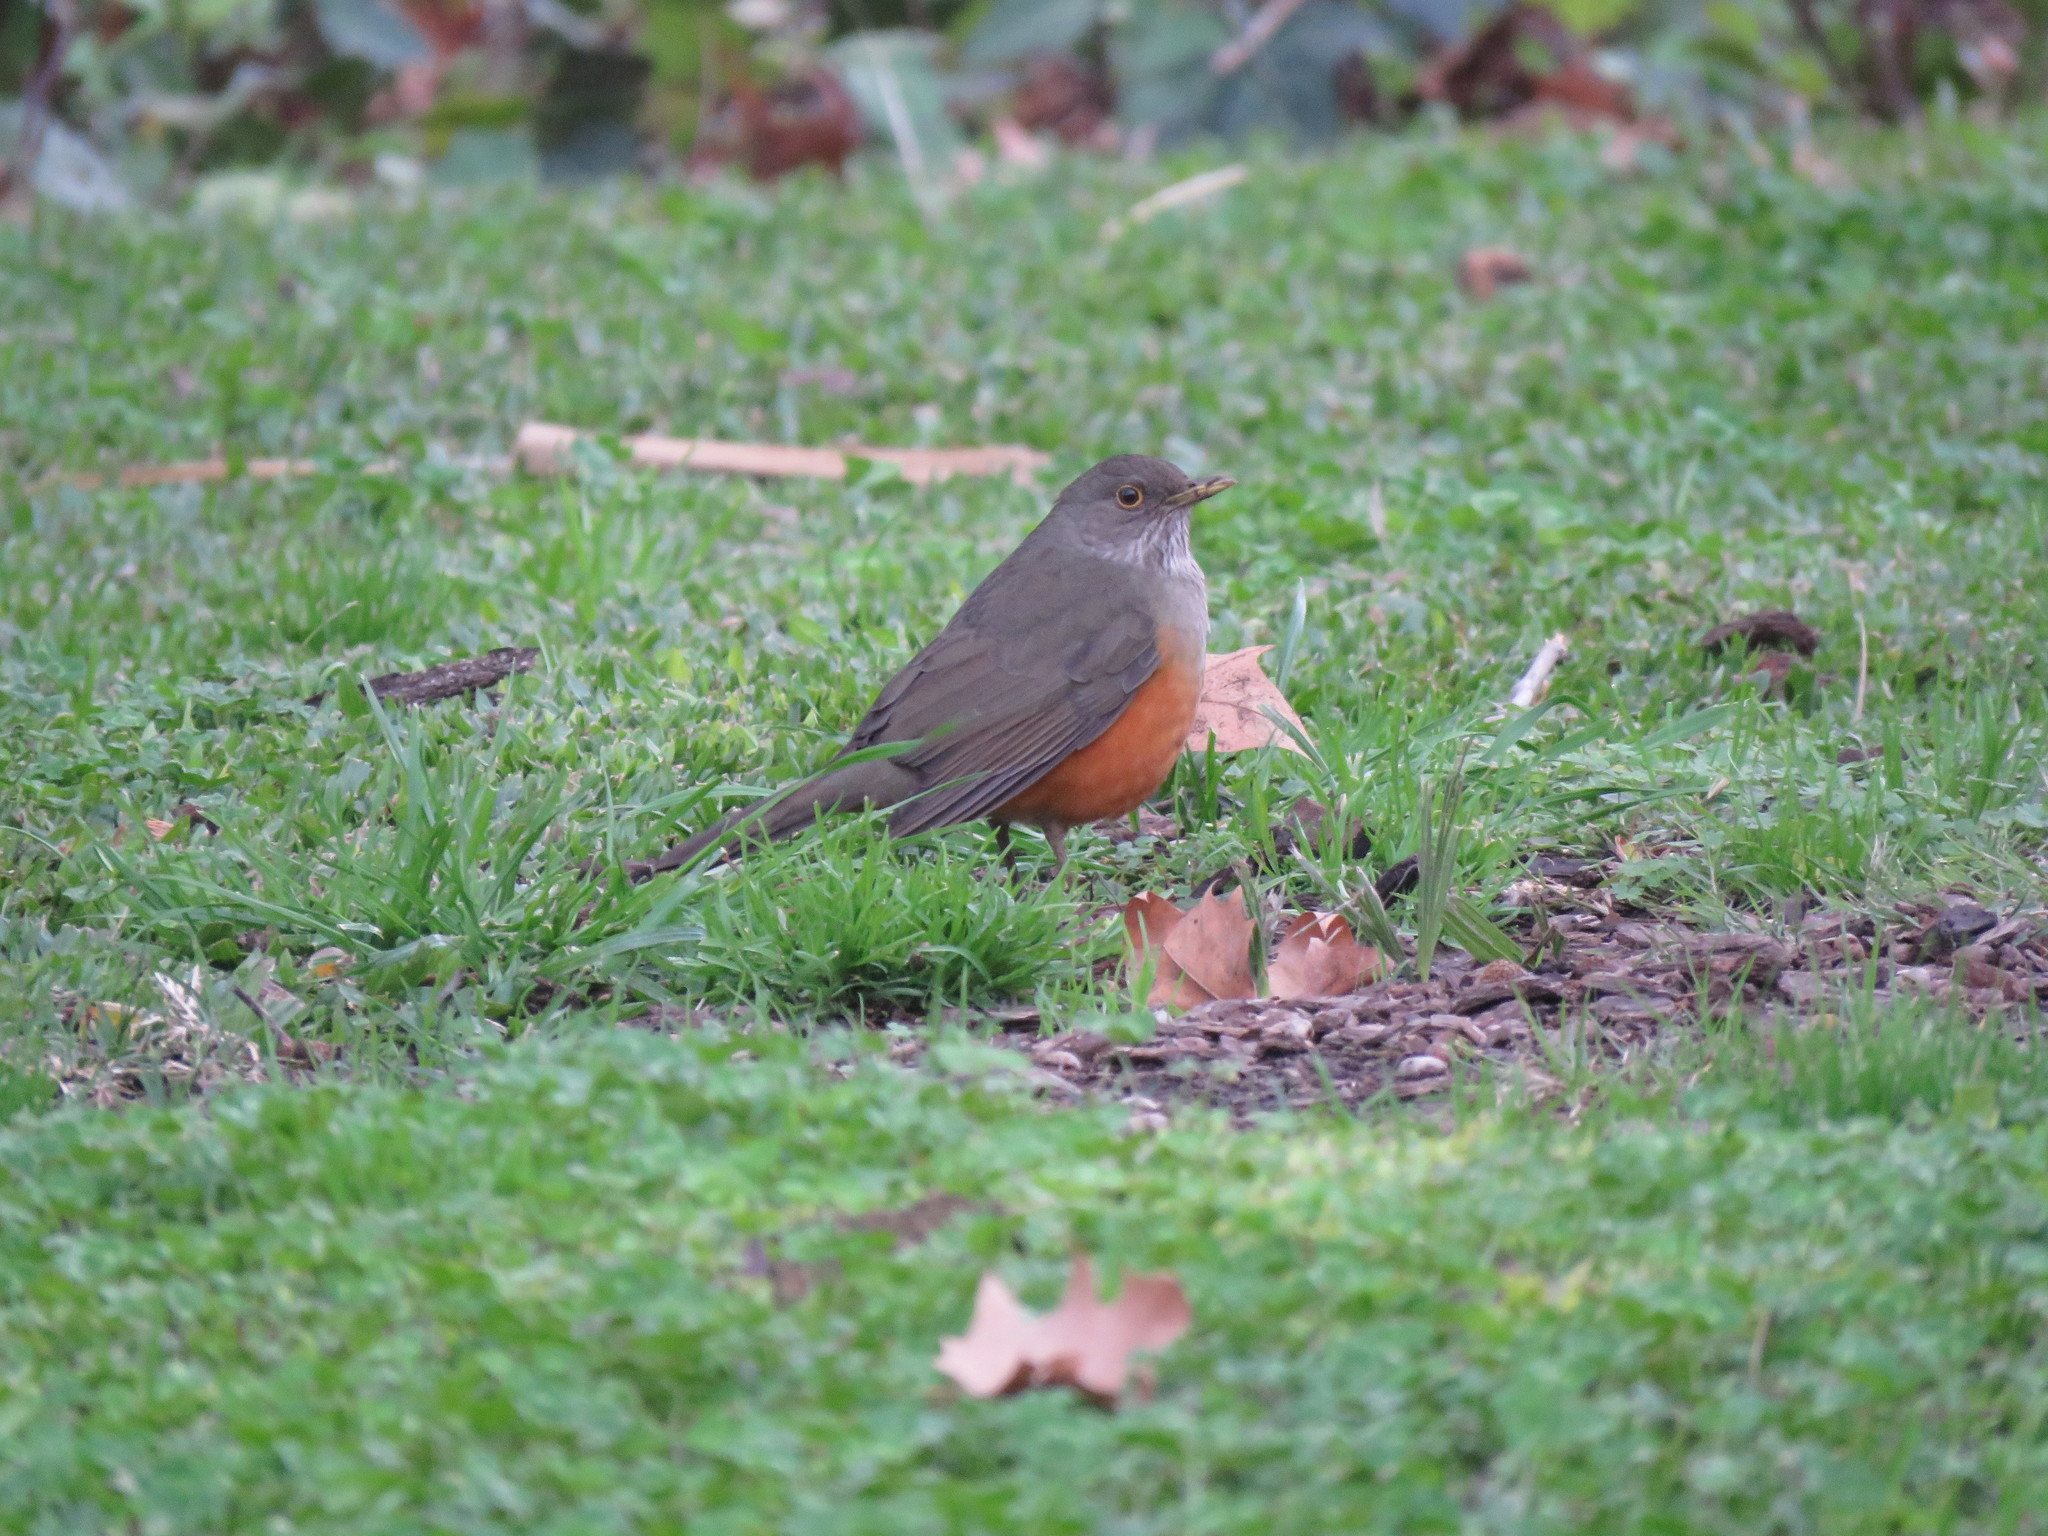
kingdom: Animalia
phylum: Chordata
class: Aves
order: Passeriformes
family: Turdidae
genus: Turdus
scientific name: Turdus rufiventris
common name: Rufous-bellied thrush
